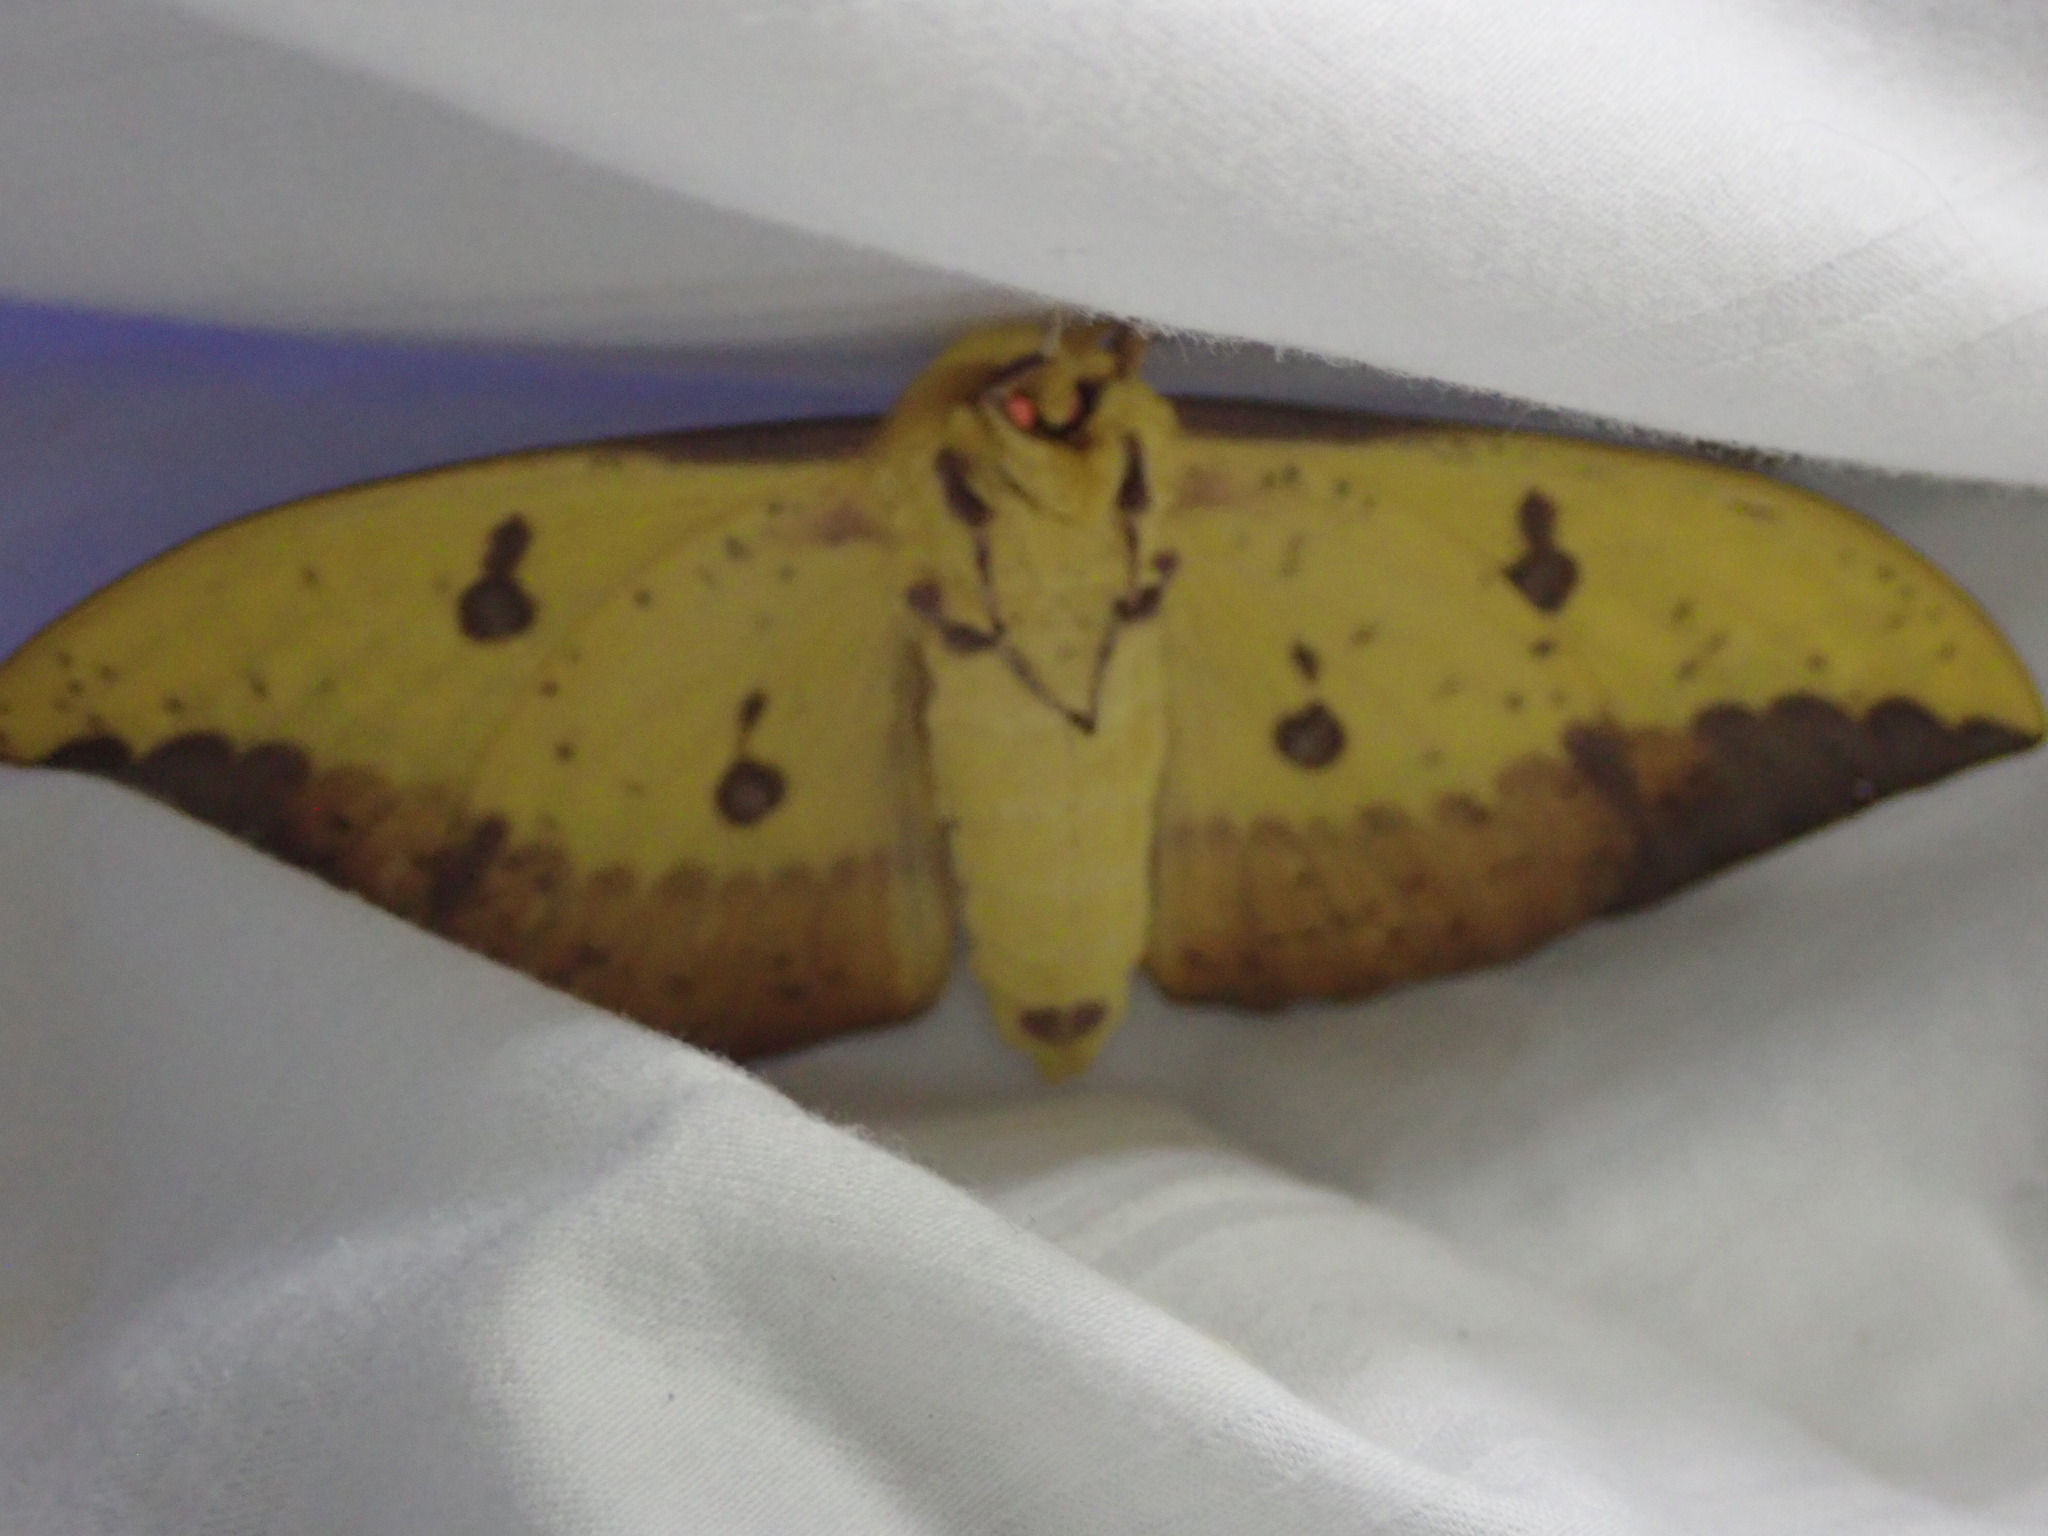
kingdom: Animalia
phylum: Arthropoda
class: Insecta
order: Lepidoptera
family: Saturniidae
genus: Eacles
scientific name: Eacles imperialis
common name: Imperial moth
